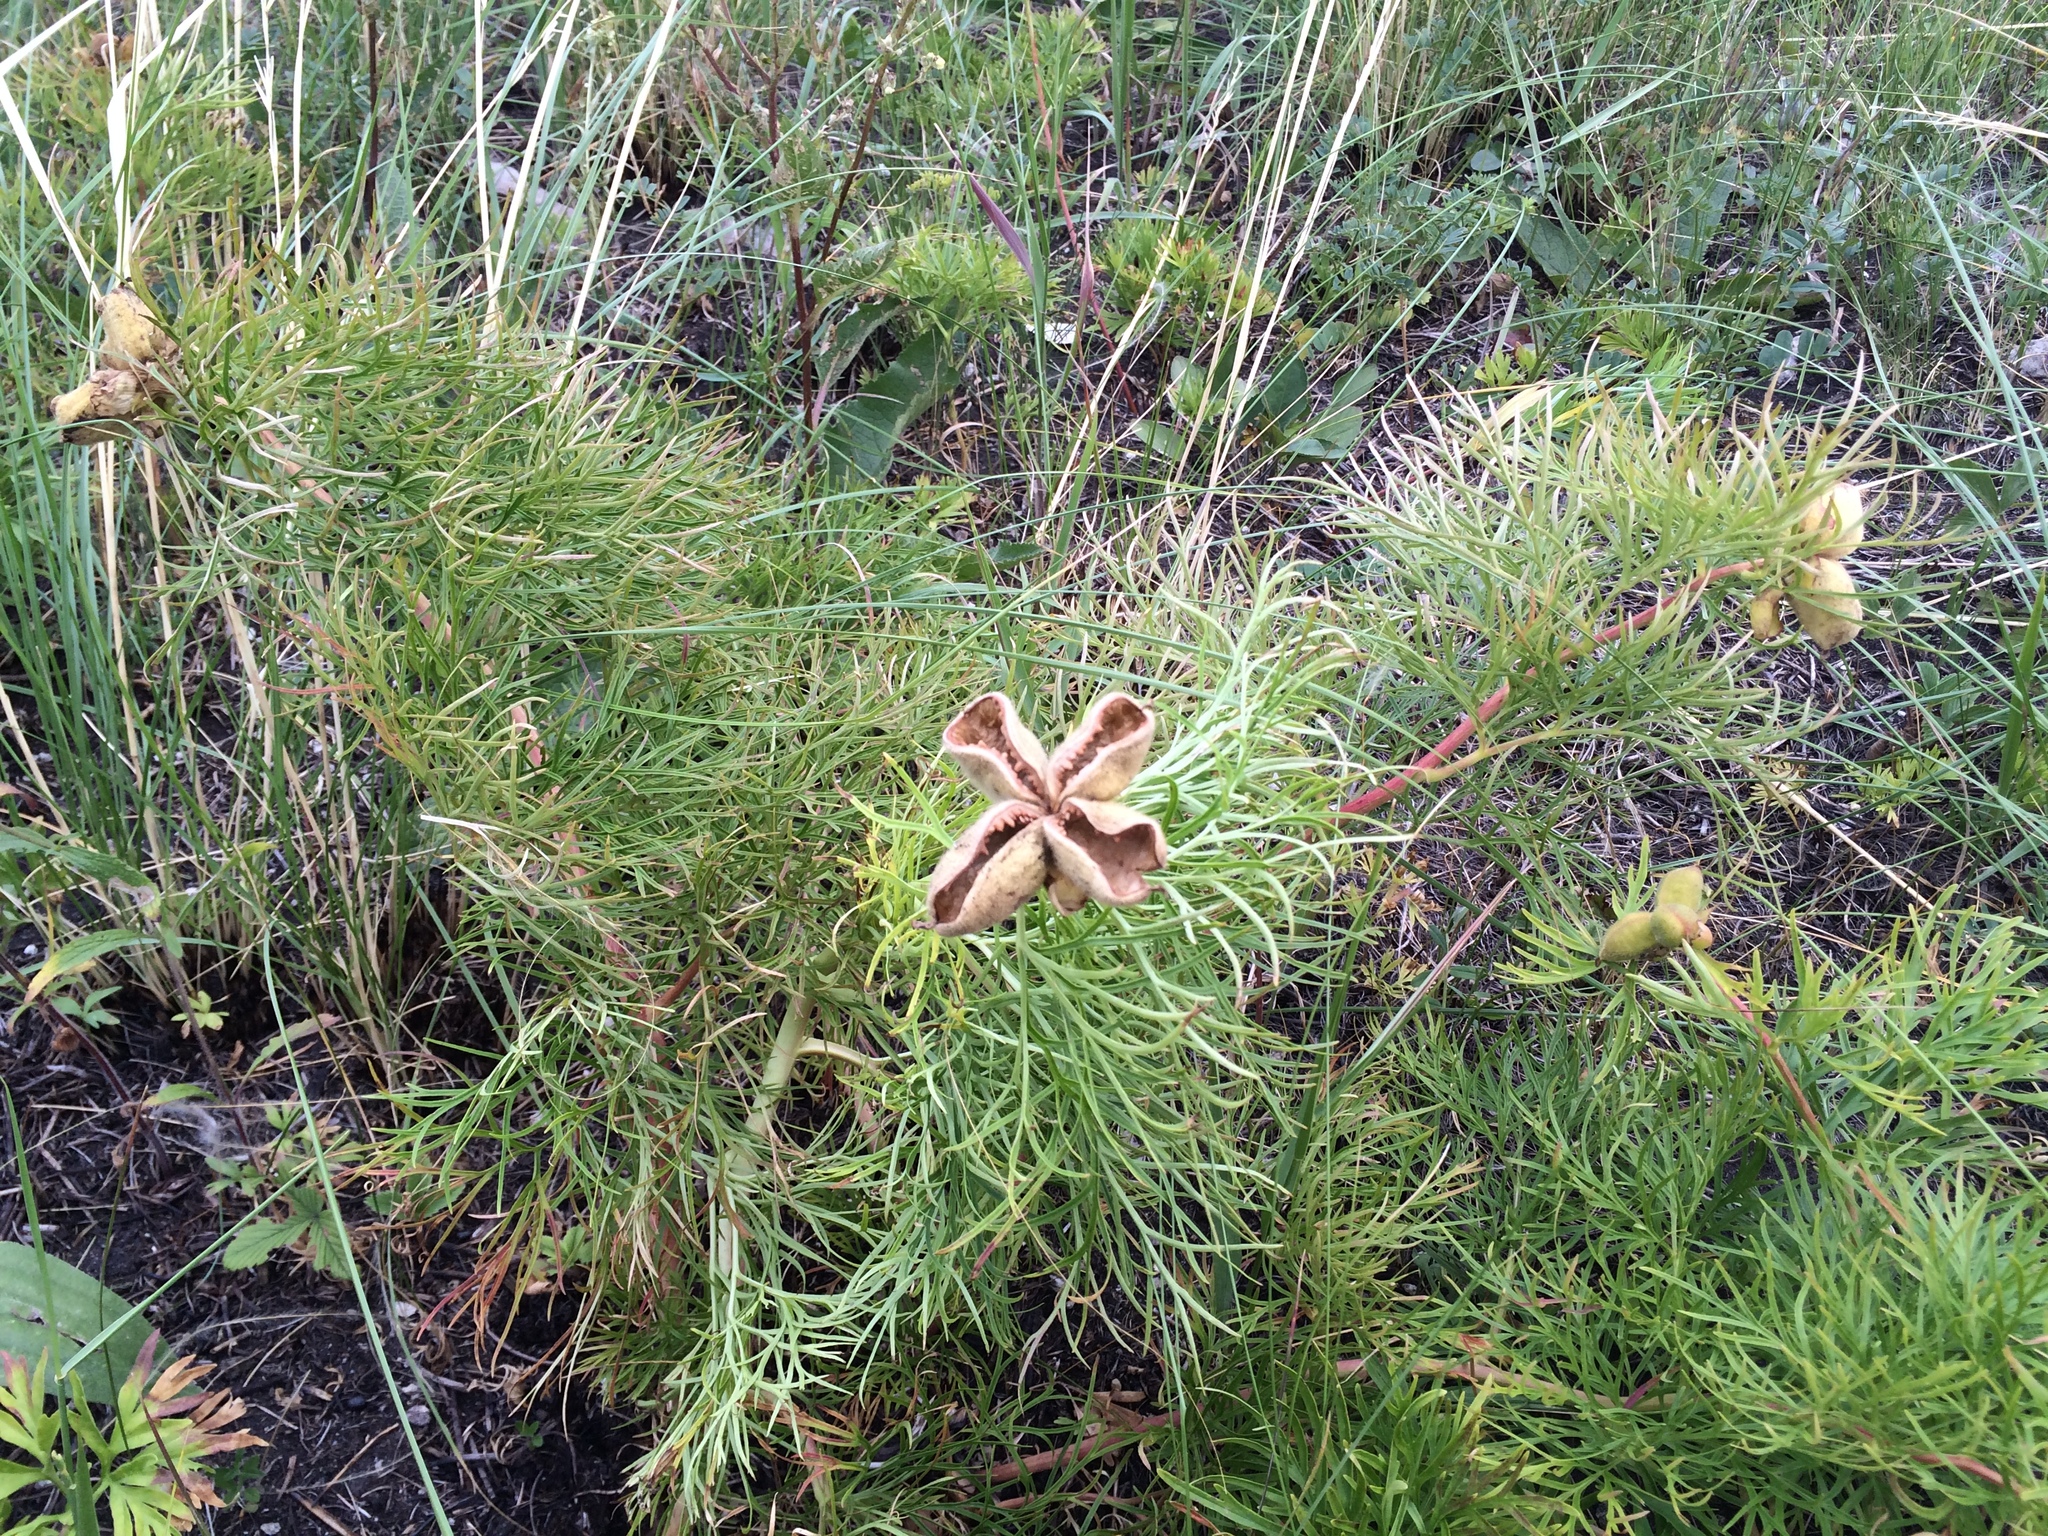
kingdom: Plantae
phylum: Tracheophyta
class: Magnoliopsida
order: Saxifragales
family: Paeoniaceae
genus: Paeonia
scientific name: Paeonia tenuifolia
